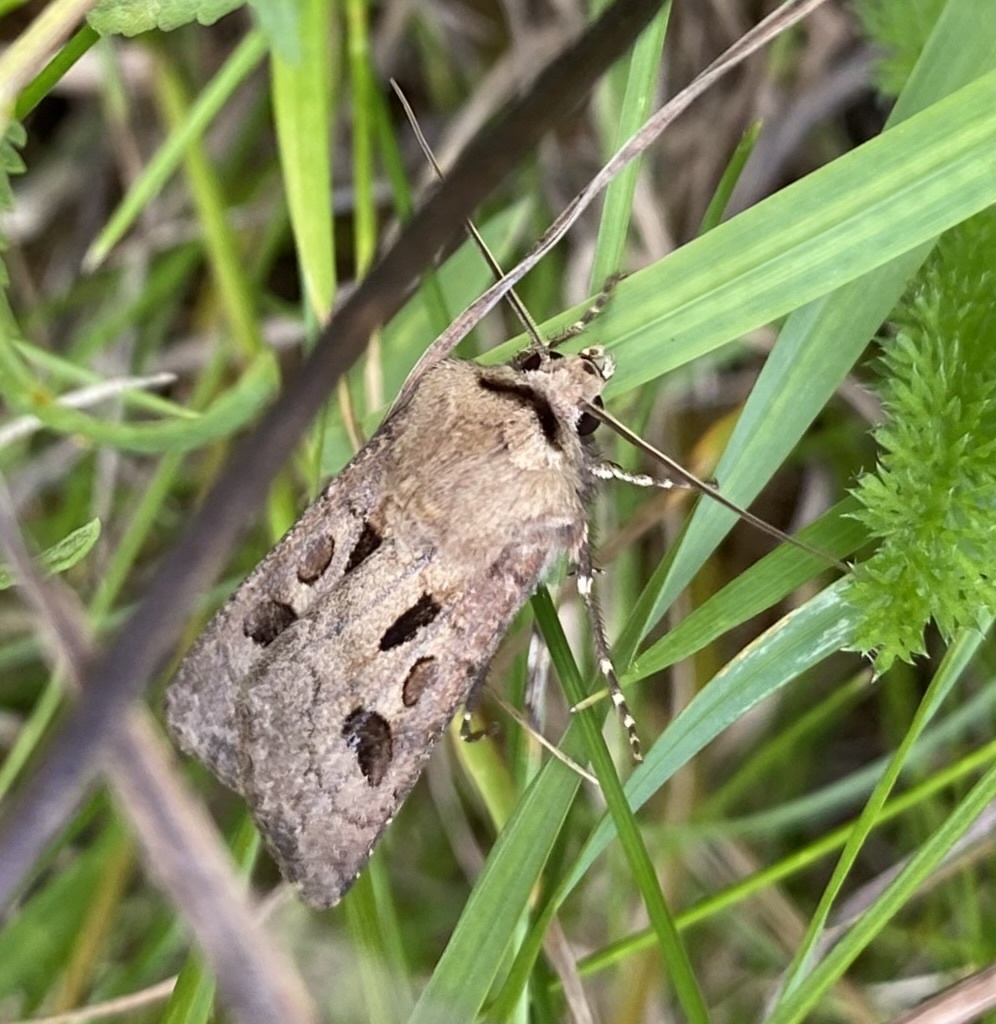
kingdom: Animalia
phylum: Arthropoda
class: Insecta
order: Lepidoptera
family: Noctuidae
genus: Agrotis
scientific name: Agrotis exclamationis
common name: Heart and dart
